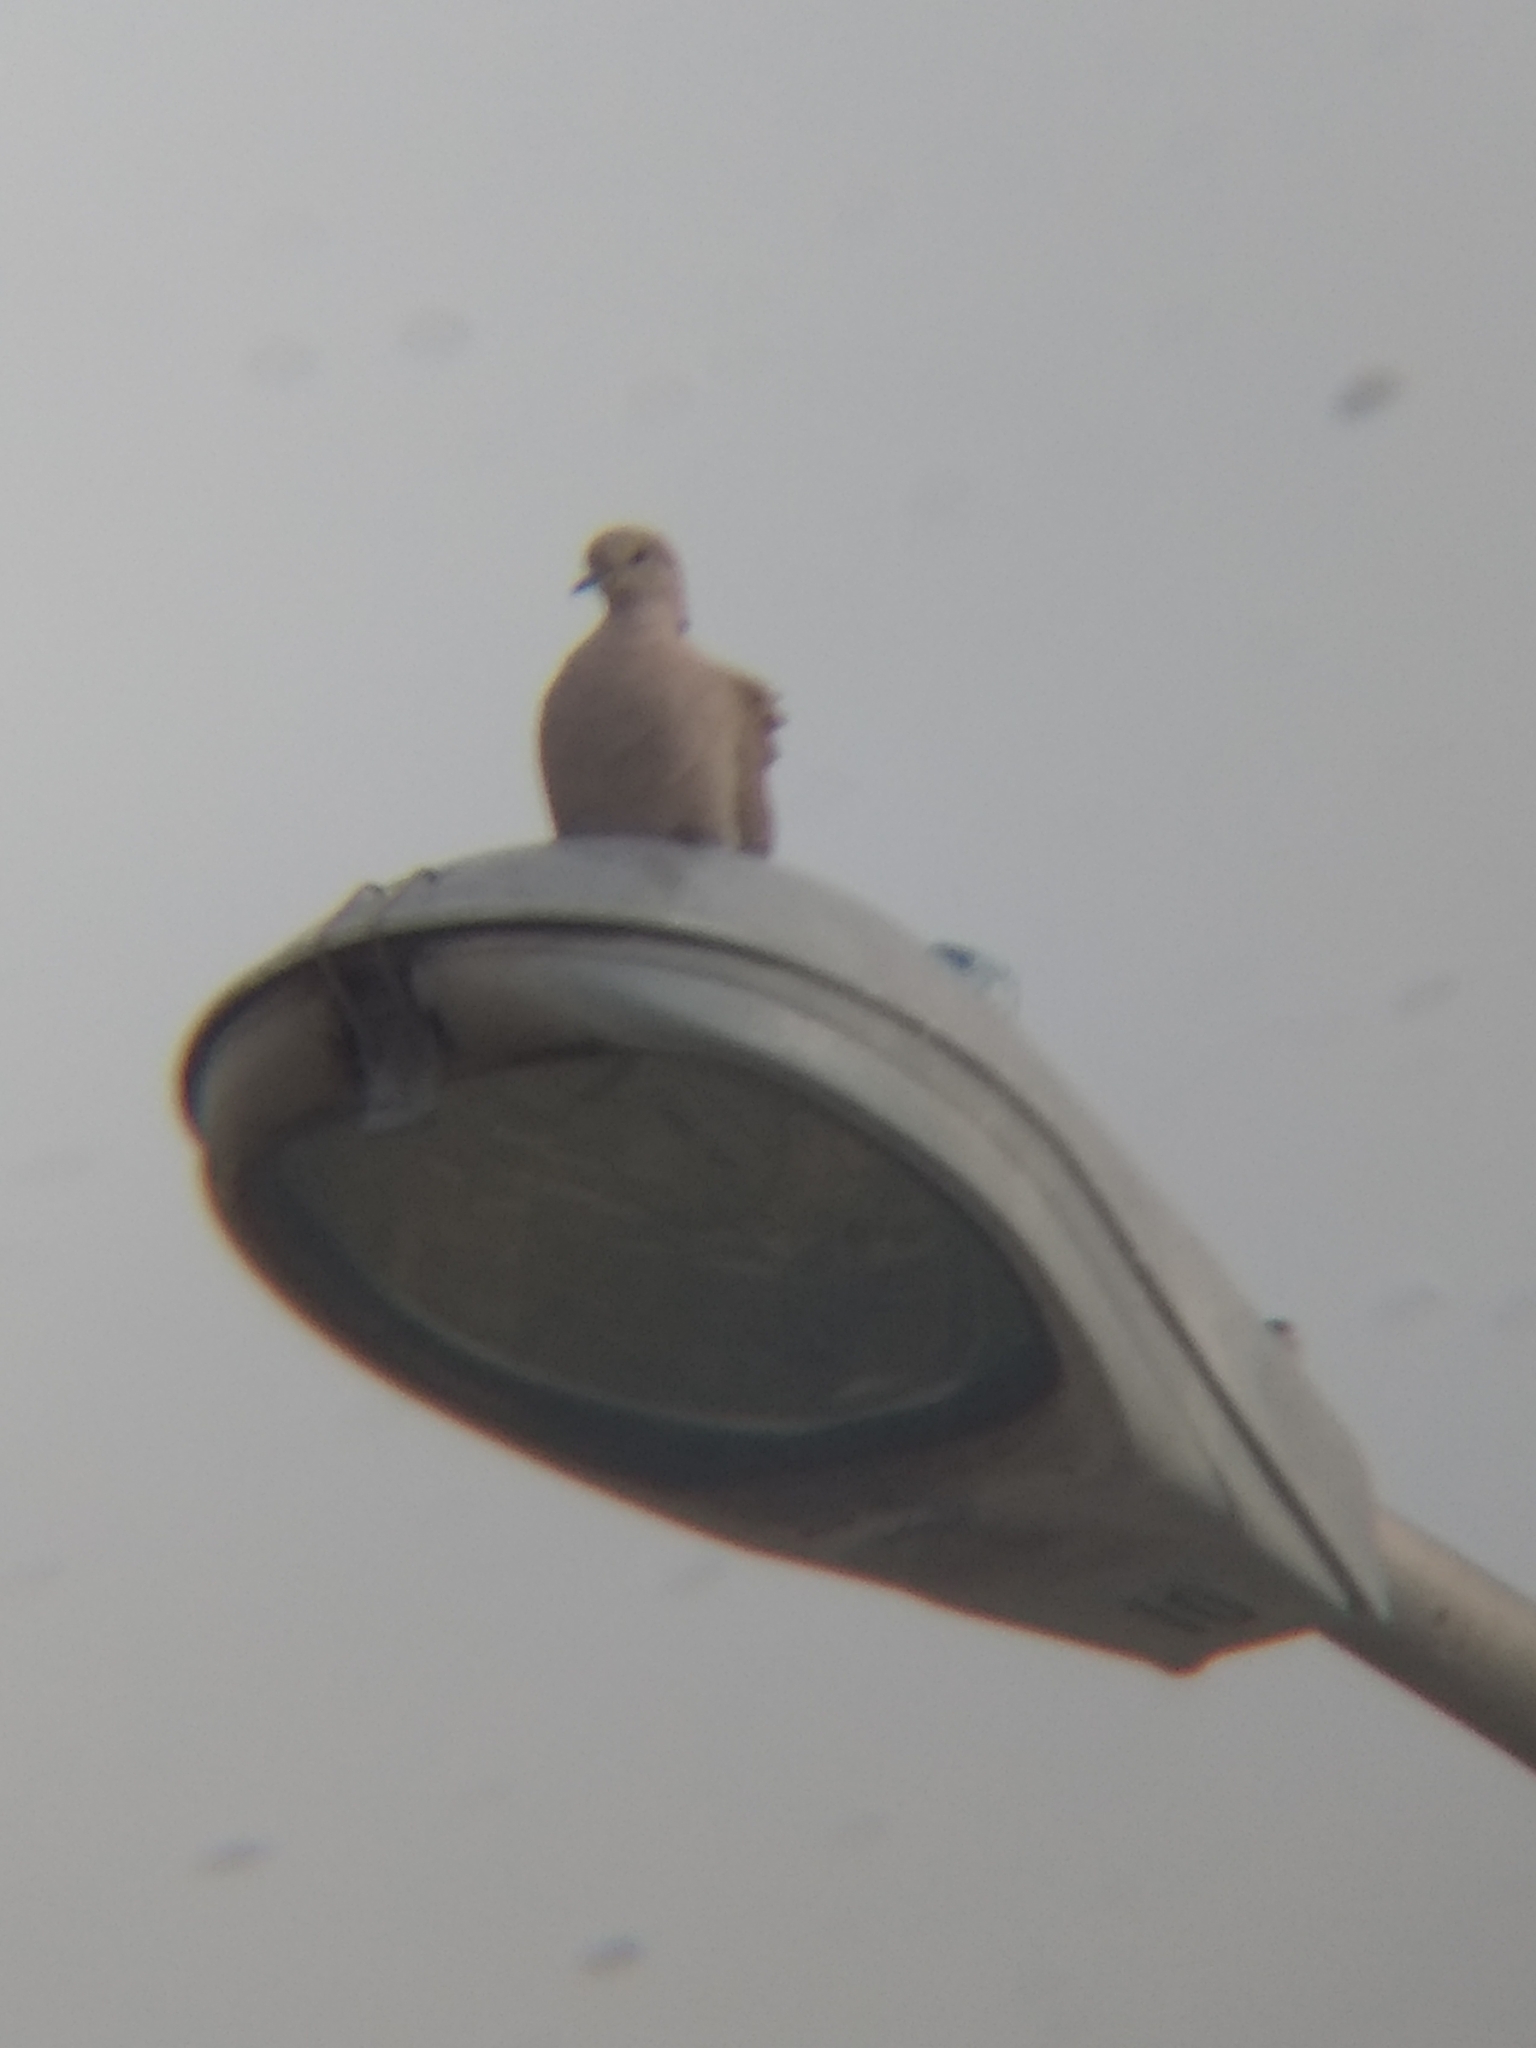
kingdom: Animalia
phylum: Chordata
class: Aves
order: Columbiformes
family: Columbidae
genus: Streptopelia
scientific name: Streptopelia decaocto
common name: Eurasian collared dove
